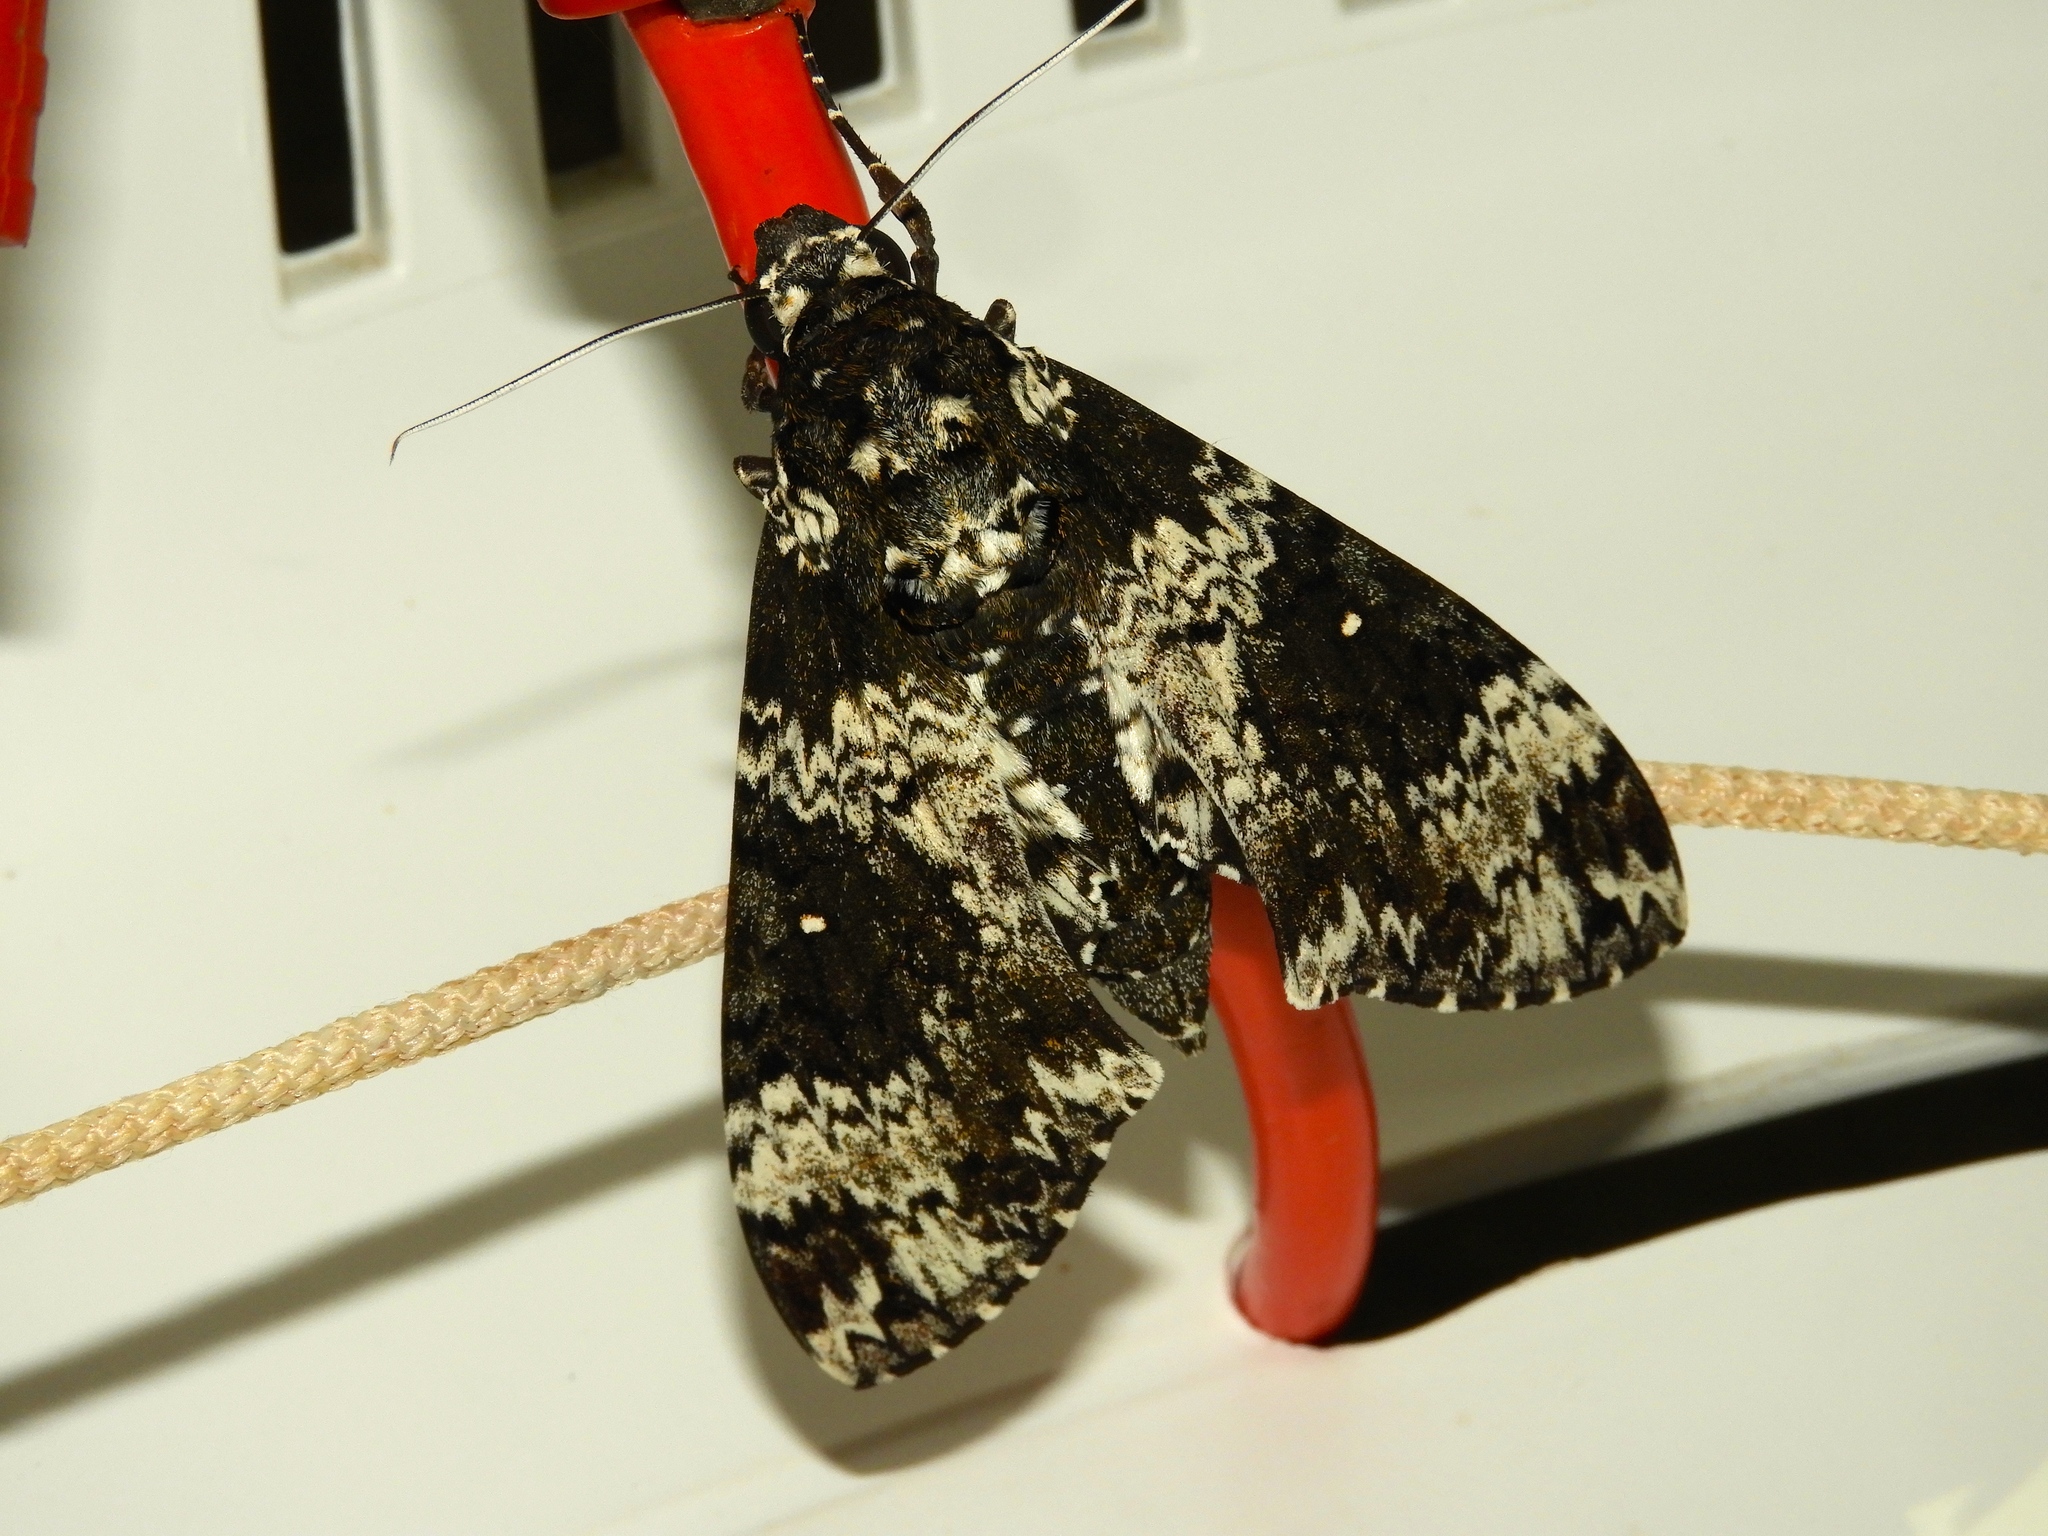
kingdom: Animalia
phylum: Arthropoda
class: Insecta
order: Lepidoptera
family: Sphingidae
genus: Manduca
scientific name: Manduca rustica
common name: Rustic sphinx
